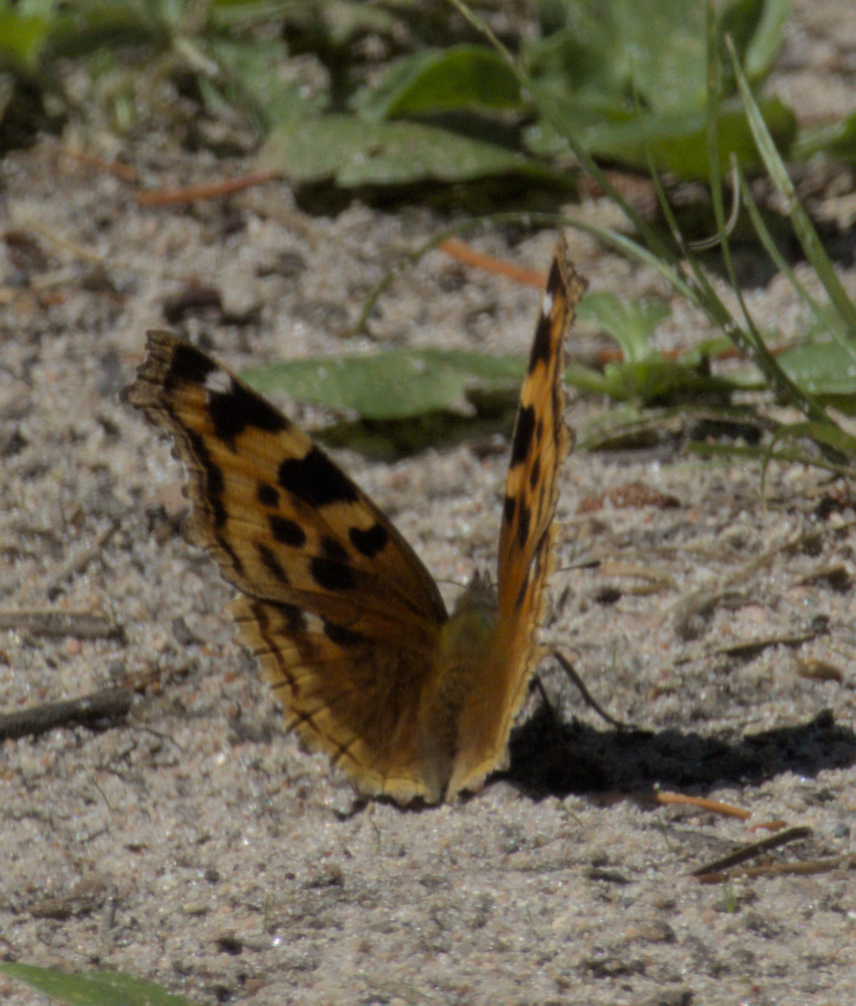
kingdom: Animalia
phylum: Arthropoda
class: Insecta
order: Lepidoptera
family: Nymphalidae
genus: Polygonia
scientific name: Polygonia vaualbum
